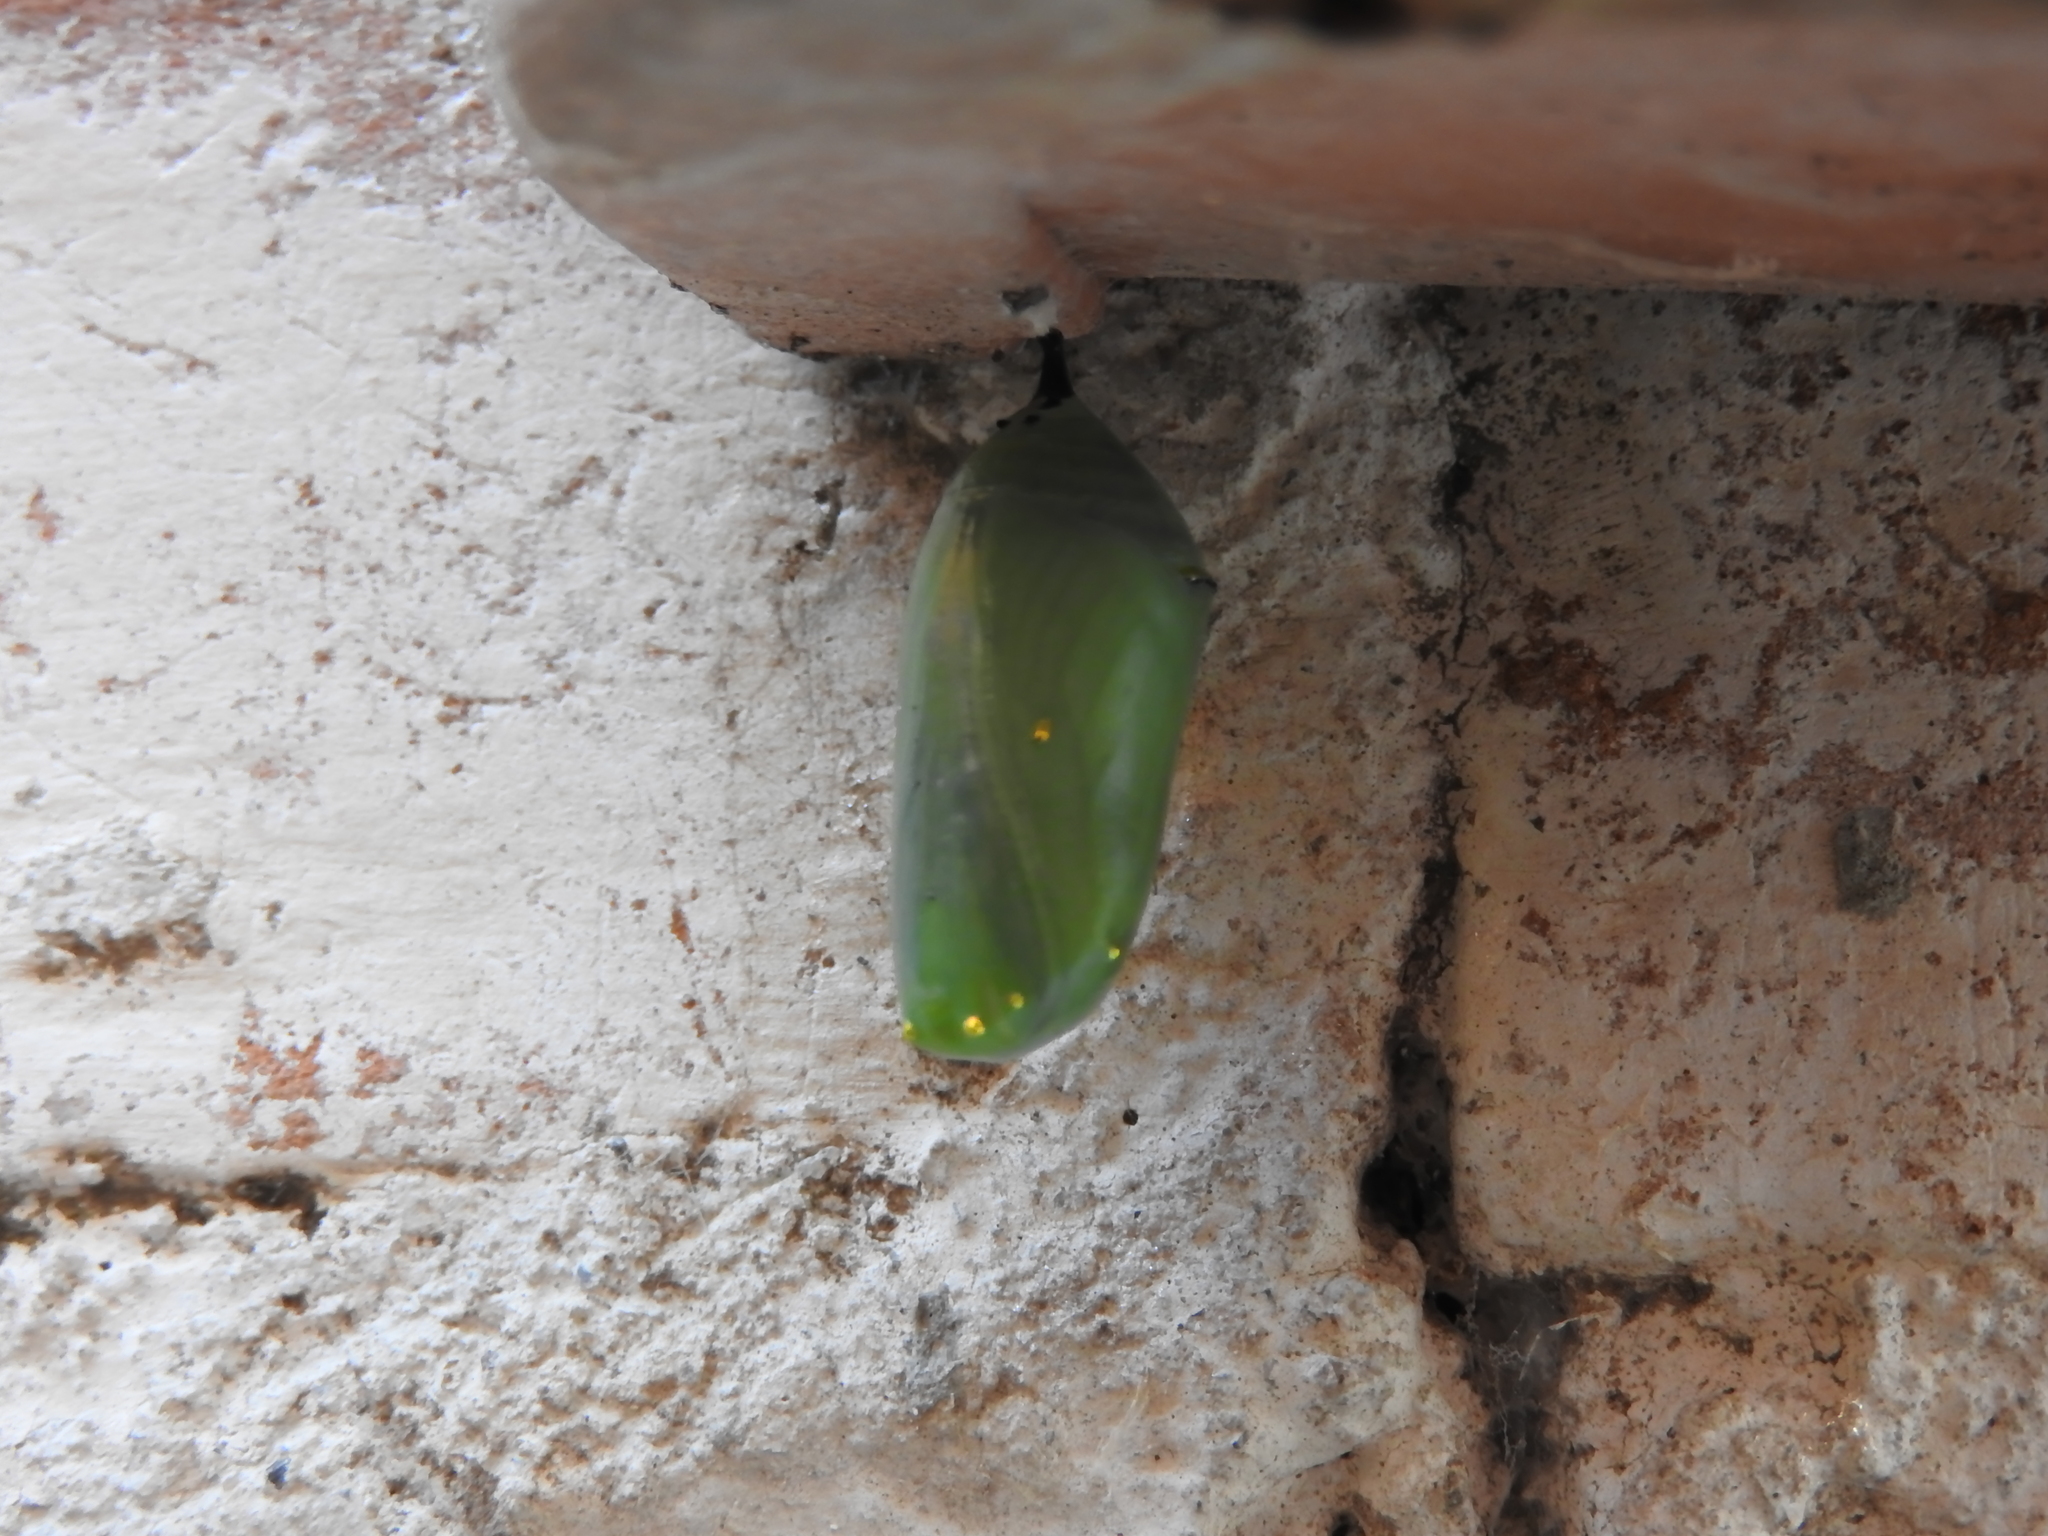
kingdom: Animalia
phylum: Arthropoda
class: Insecta
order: Lepidoptera
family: Nymphalidae
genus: Danaus
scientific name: Danaus plexippus
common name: Monarch
